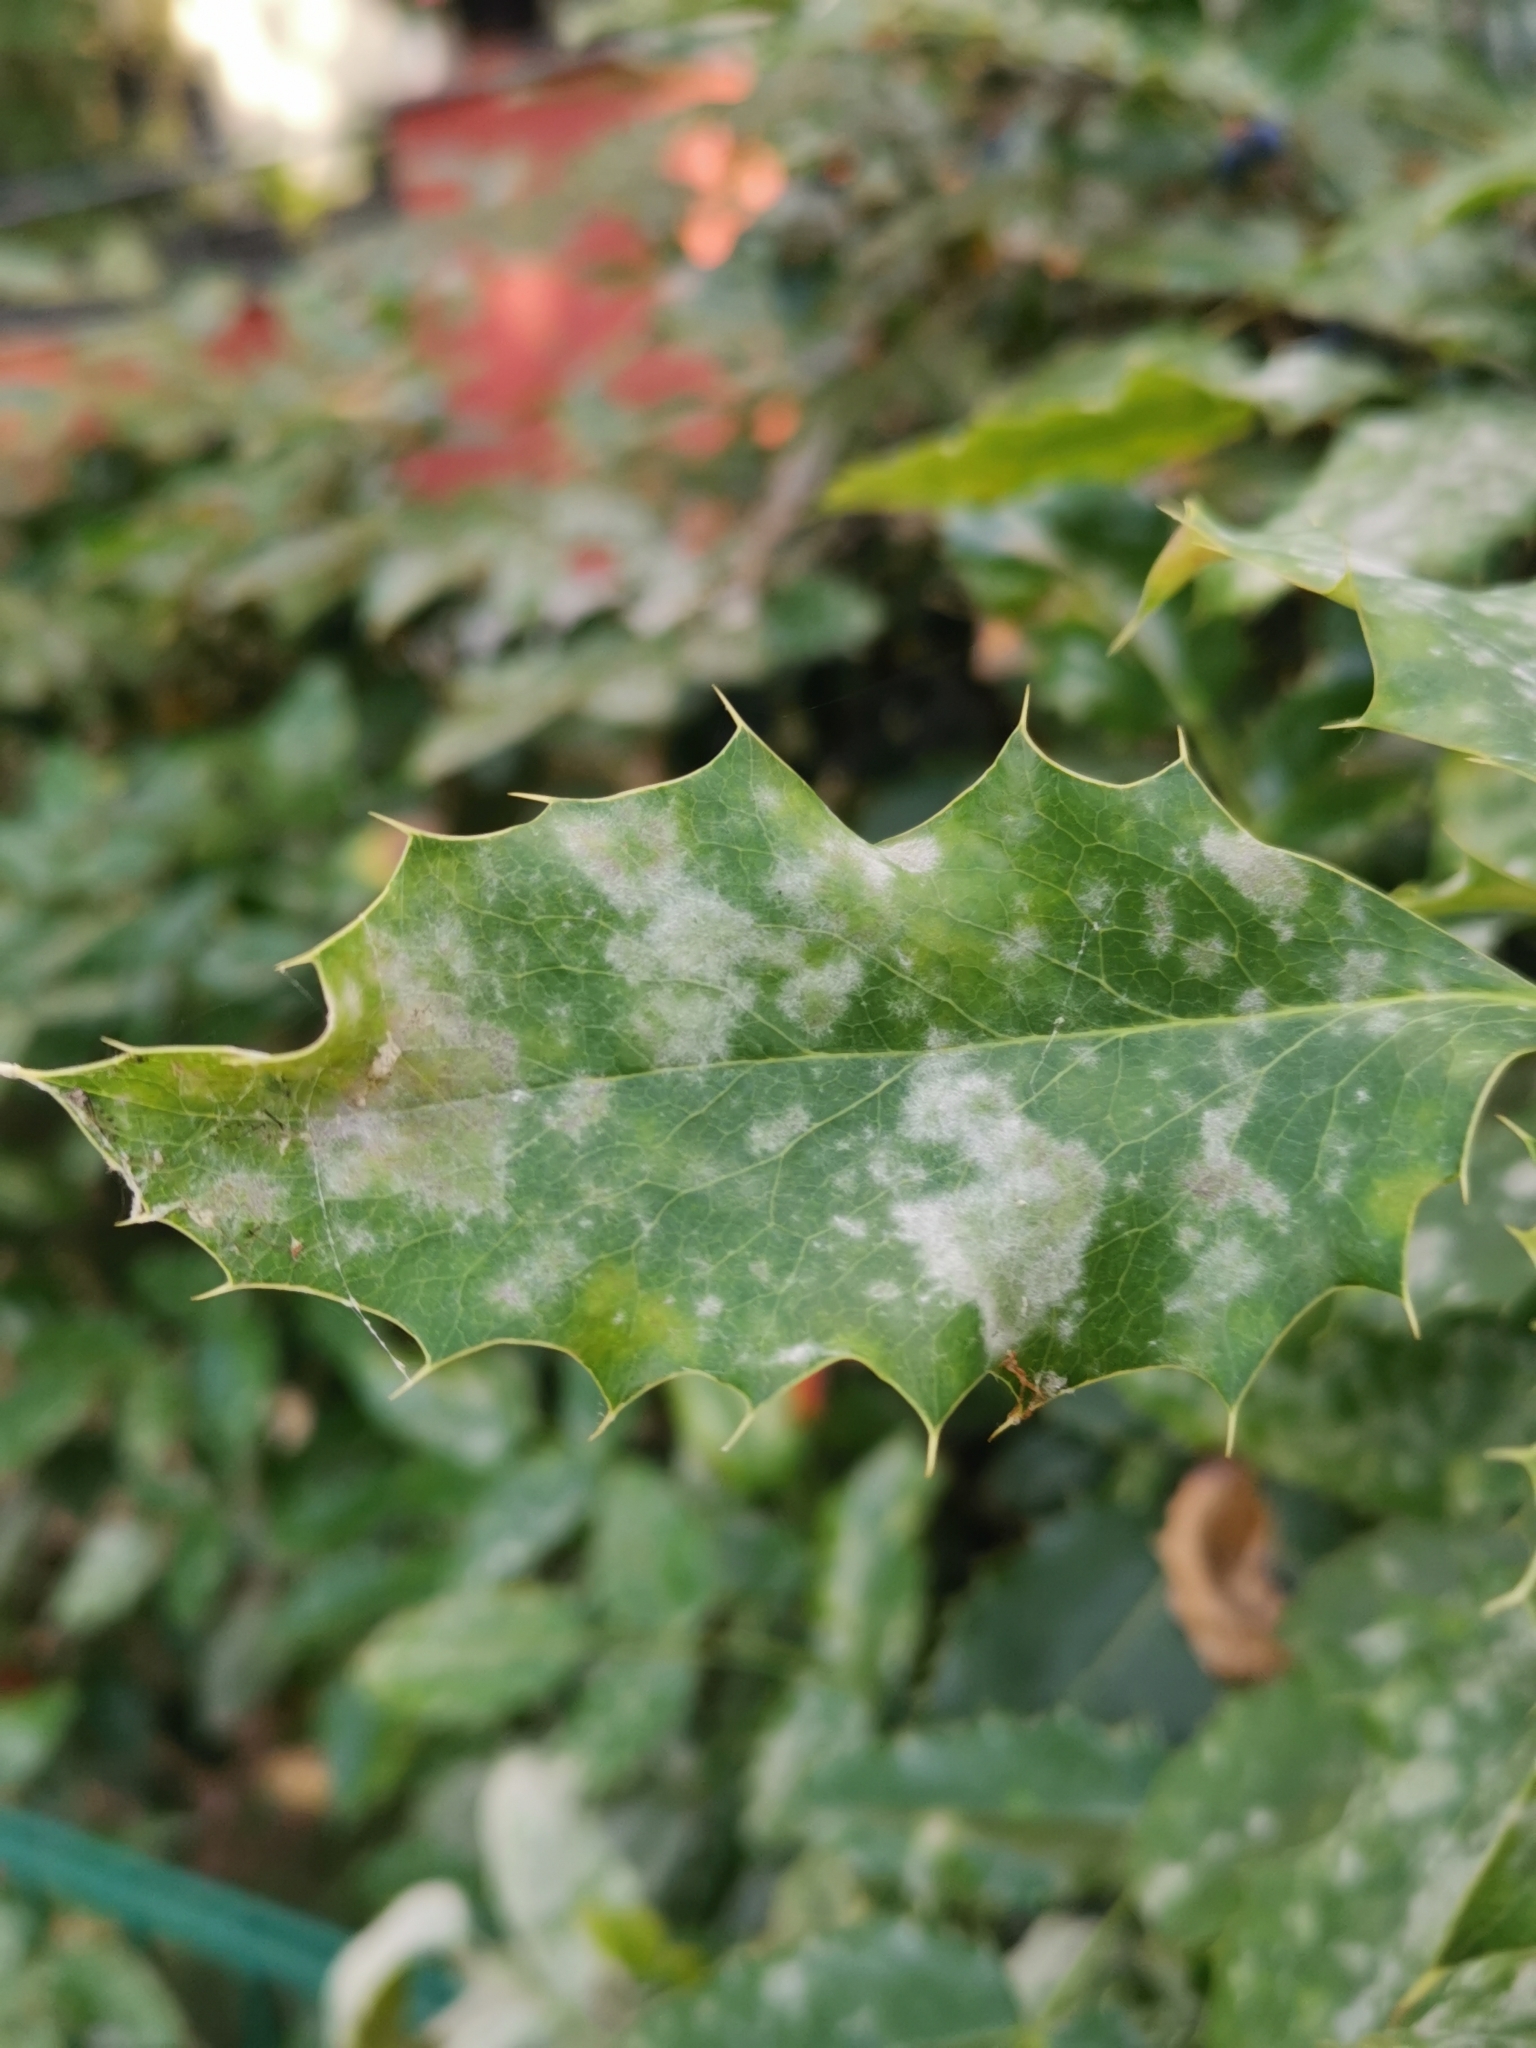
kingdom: Fungi
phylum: Ascomycota
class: Leotiomycetes
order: Helotiales
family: Erysiphaceae
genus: Erysiphe
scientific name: Erysiphe berberidis
